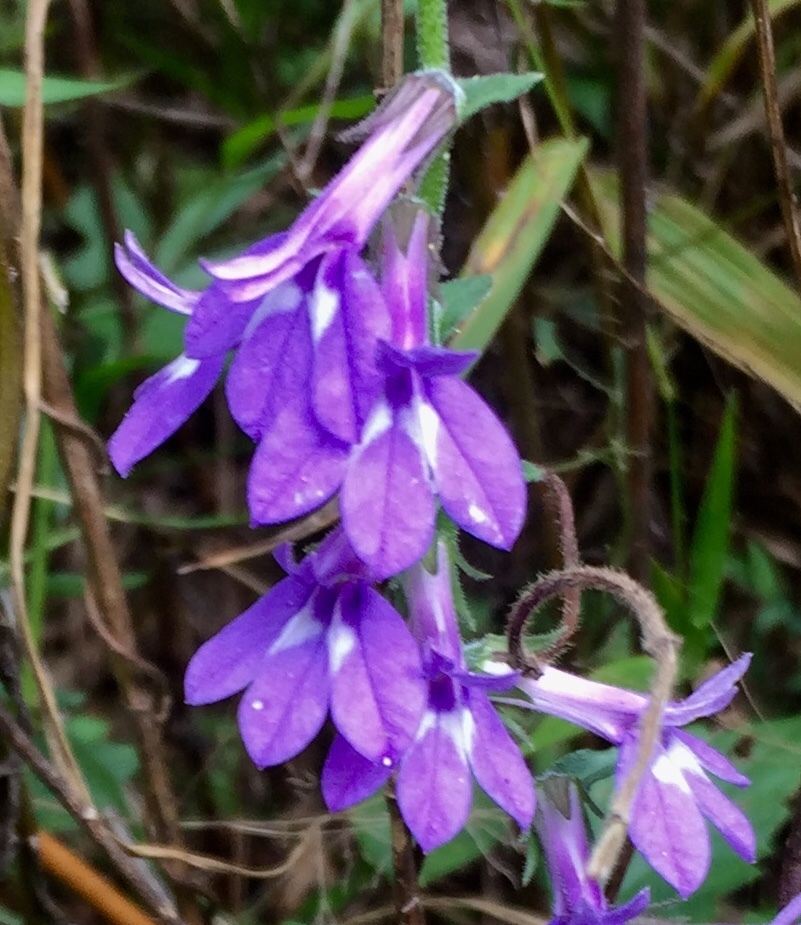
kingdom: Plantae
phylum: Tracheophyta
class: Magnoliopsida
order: Asterales
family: Campanulaceae
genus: Lobelia
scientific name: Lobelia puberula
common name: Purple dewdrop
